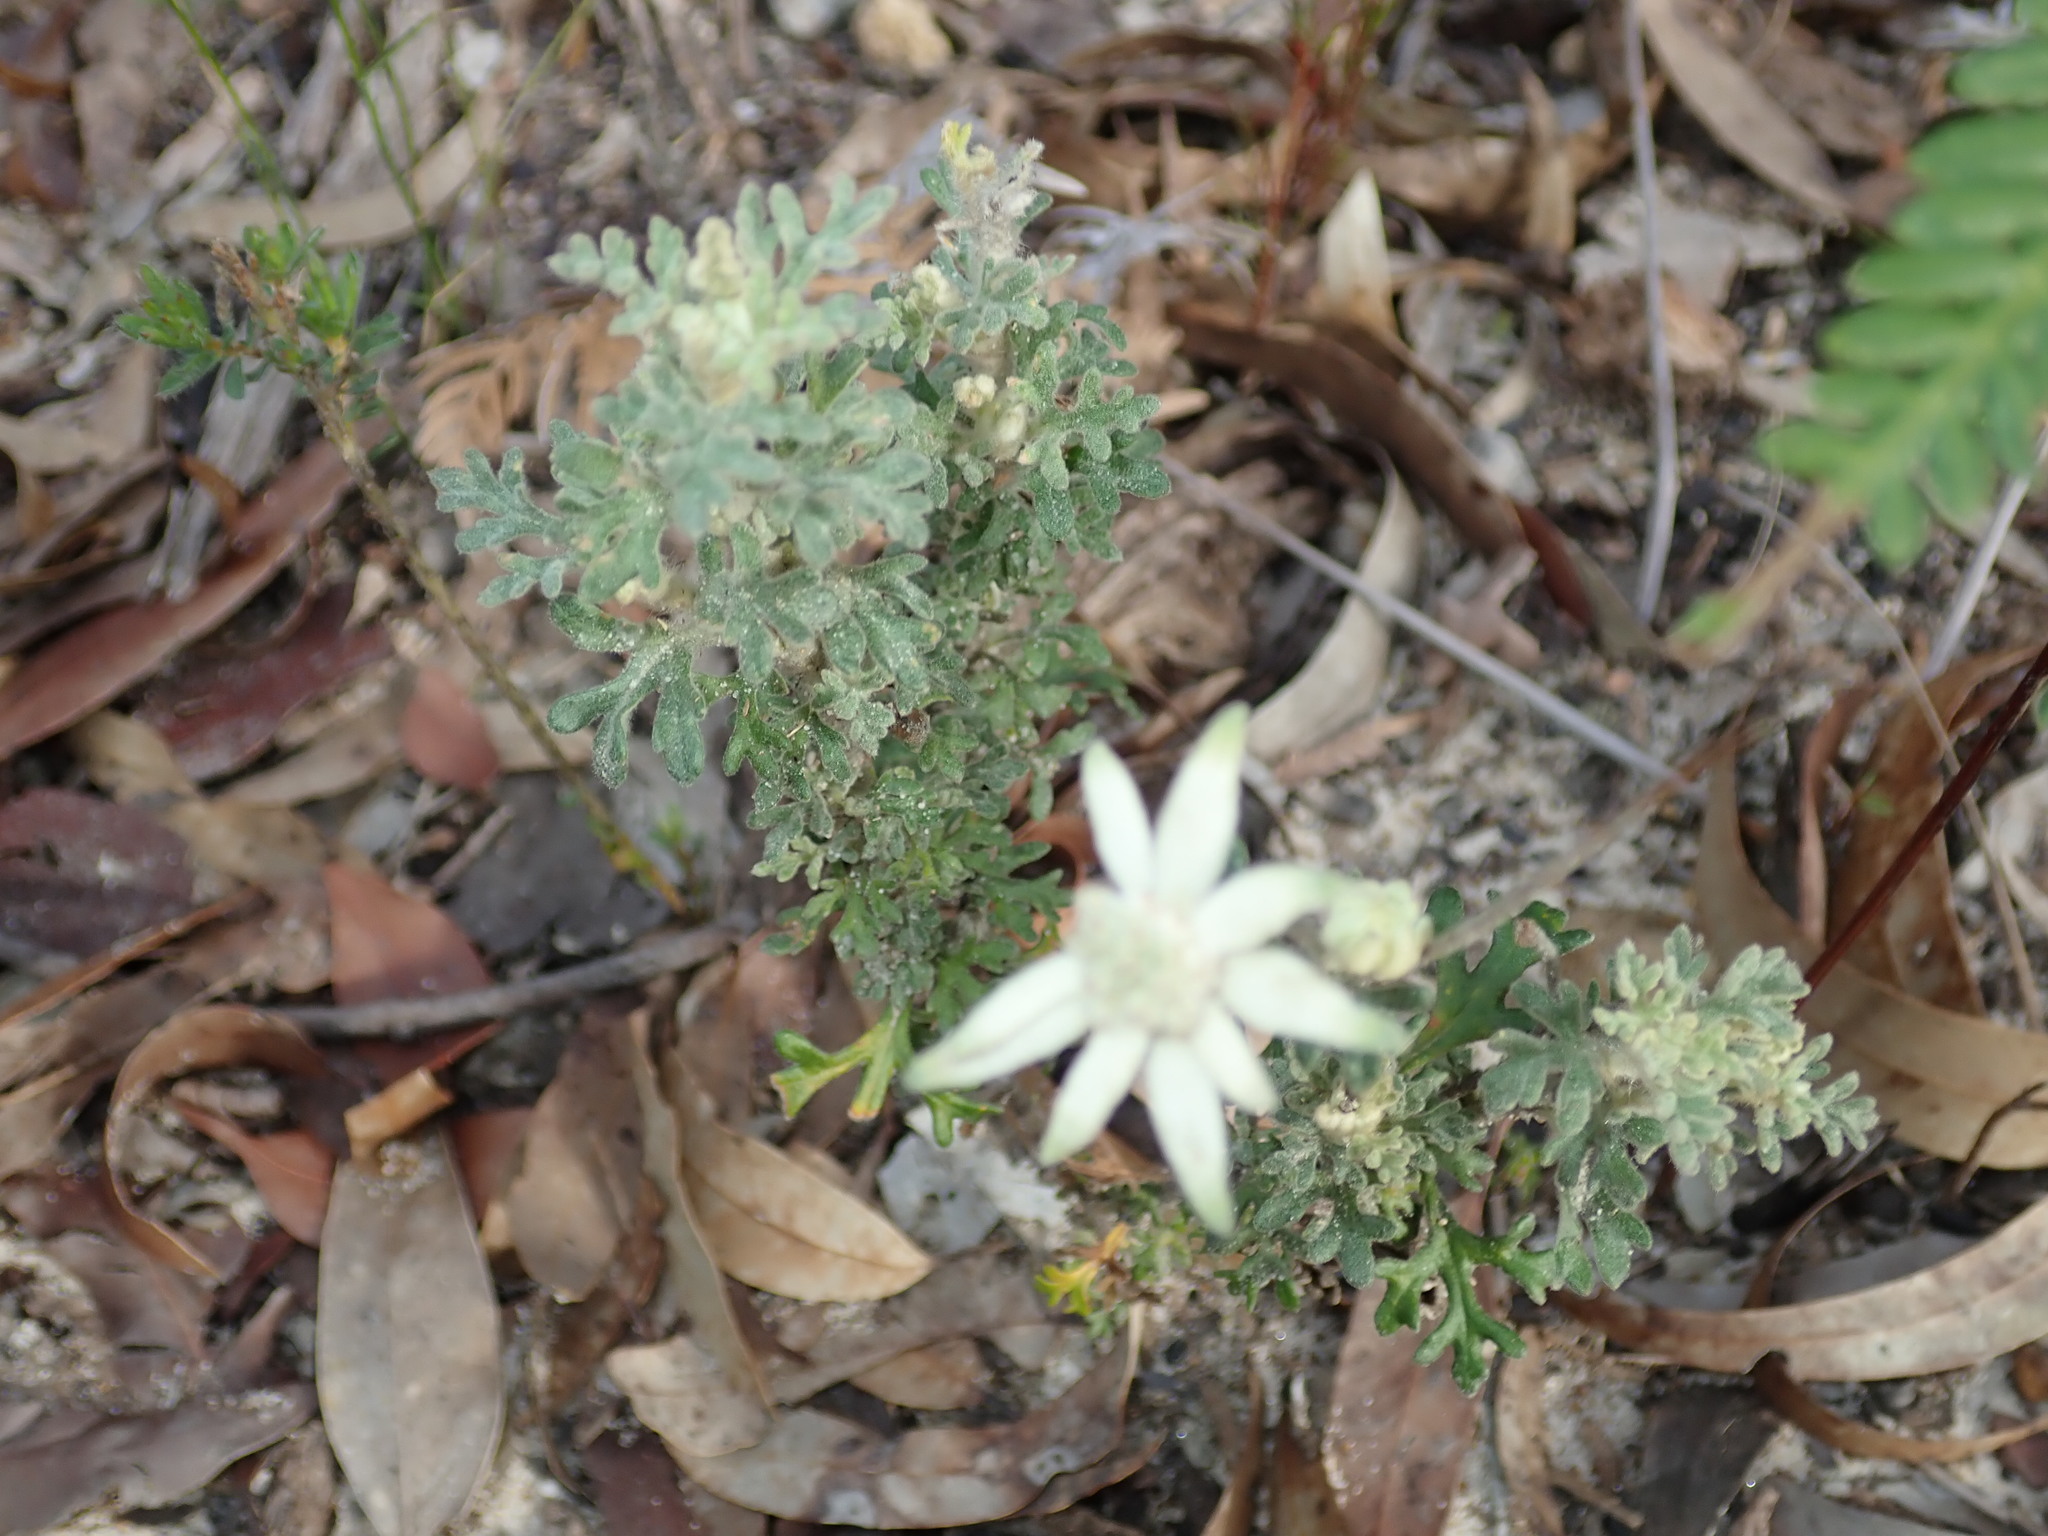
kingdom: Plantae
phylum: Tracheophyta
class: Magnoliopsida
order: Apiales
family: Apiaceae
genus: Actinotus
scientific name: Actinotus helianthi
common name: Flannel-flower
